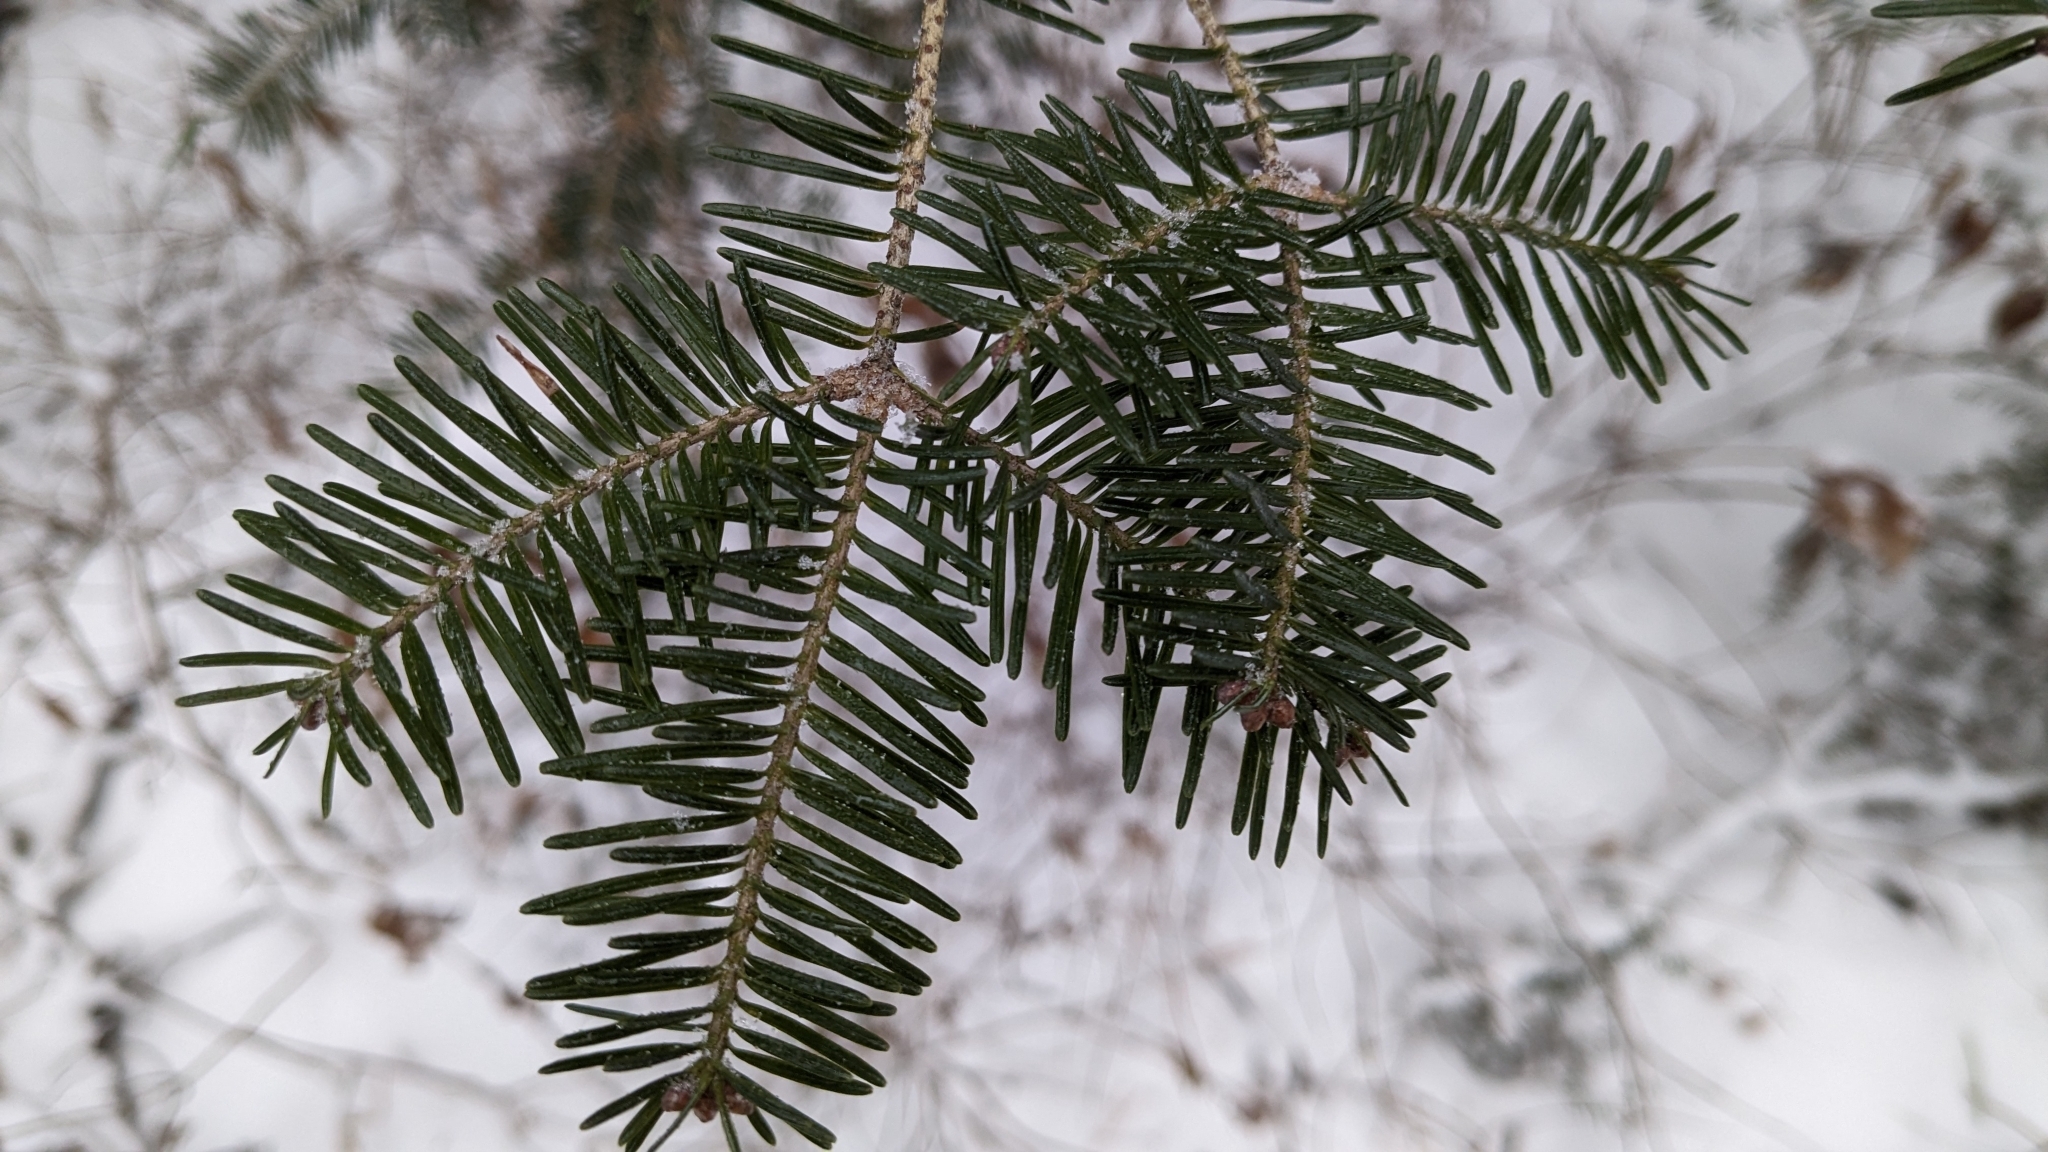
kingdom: Plantae
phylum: Tracheophyta
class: Pinopsida
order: Pinales
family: Pinaceae
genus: Abies
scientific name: Abies balsamea
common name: Balsam fir
